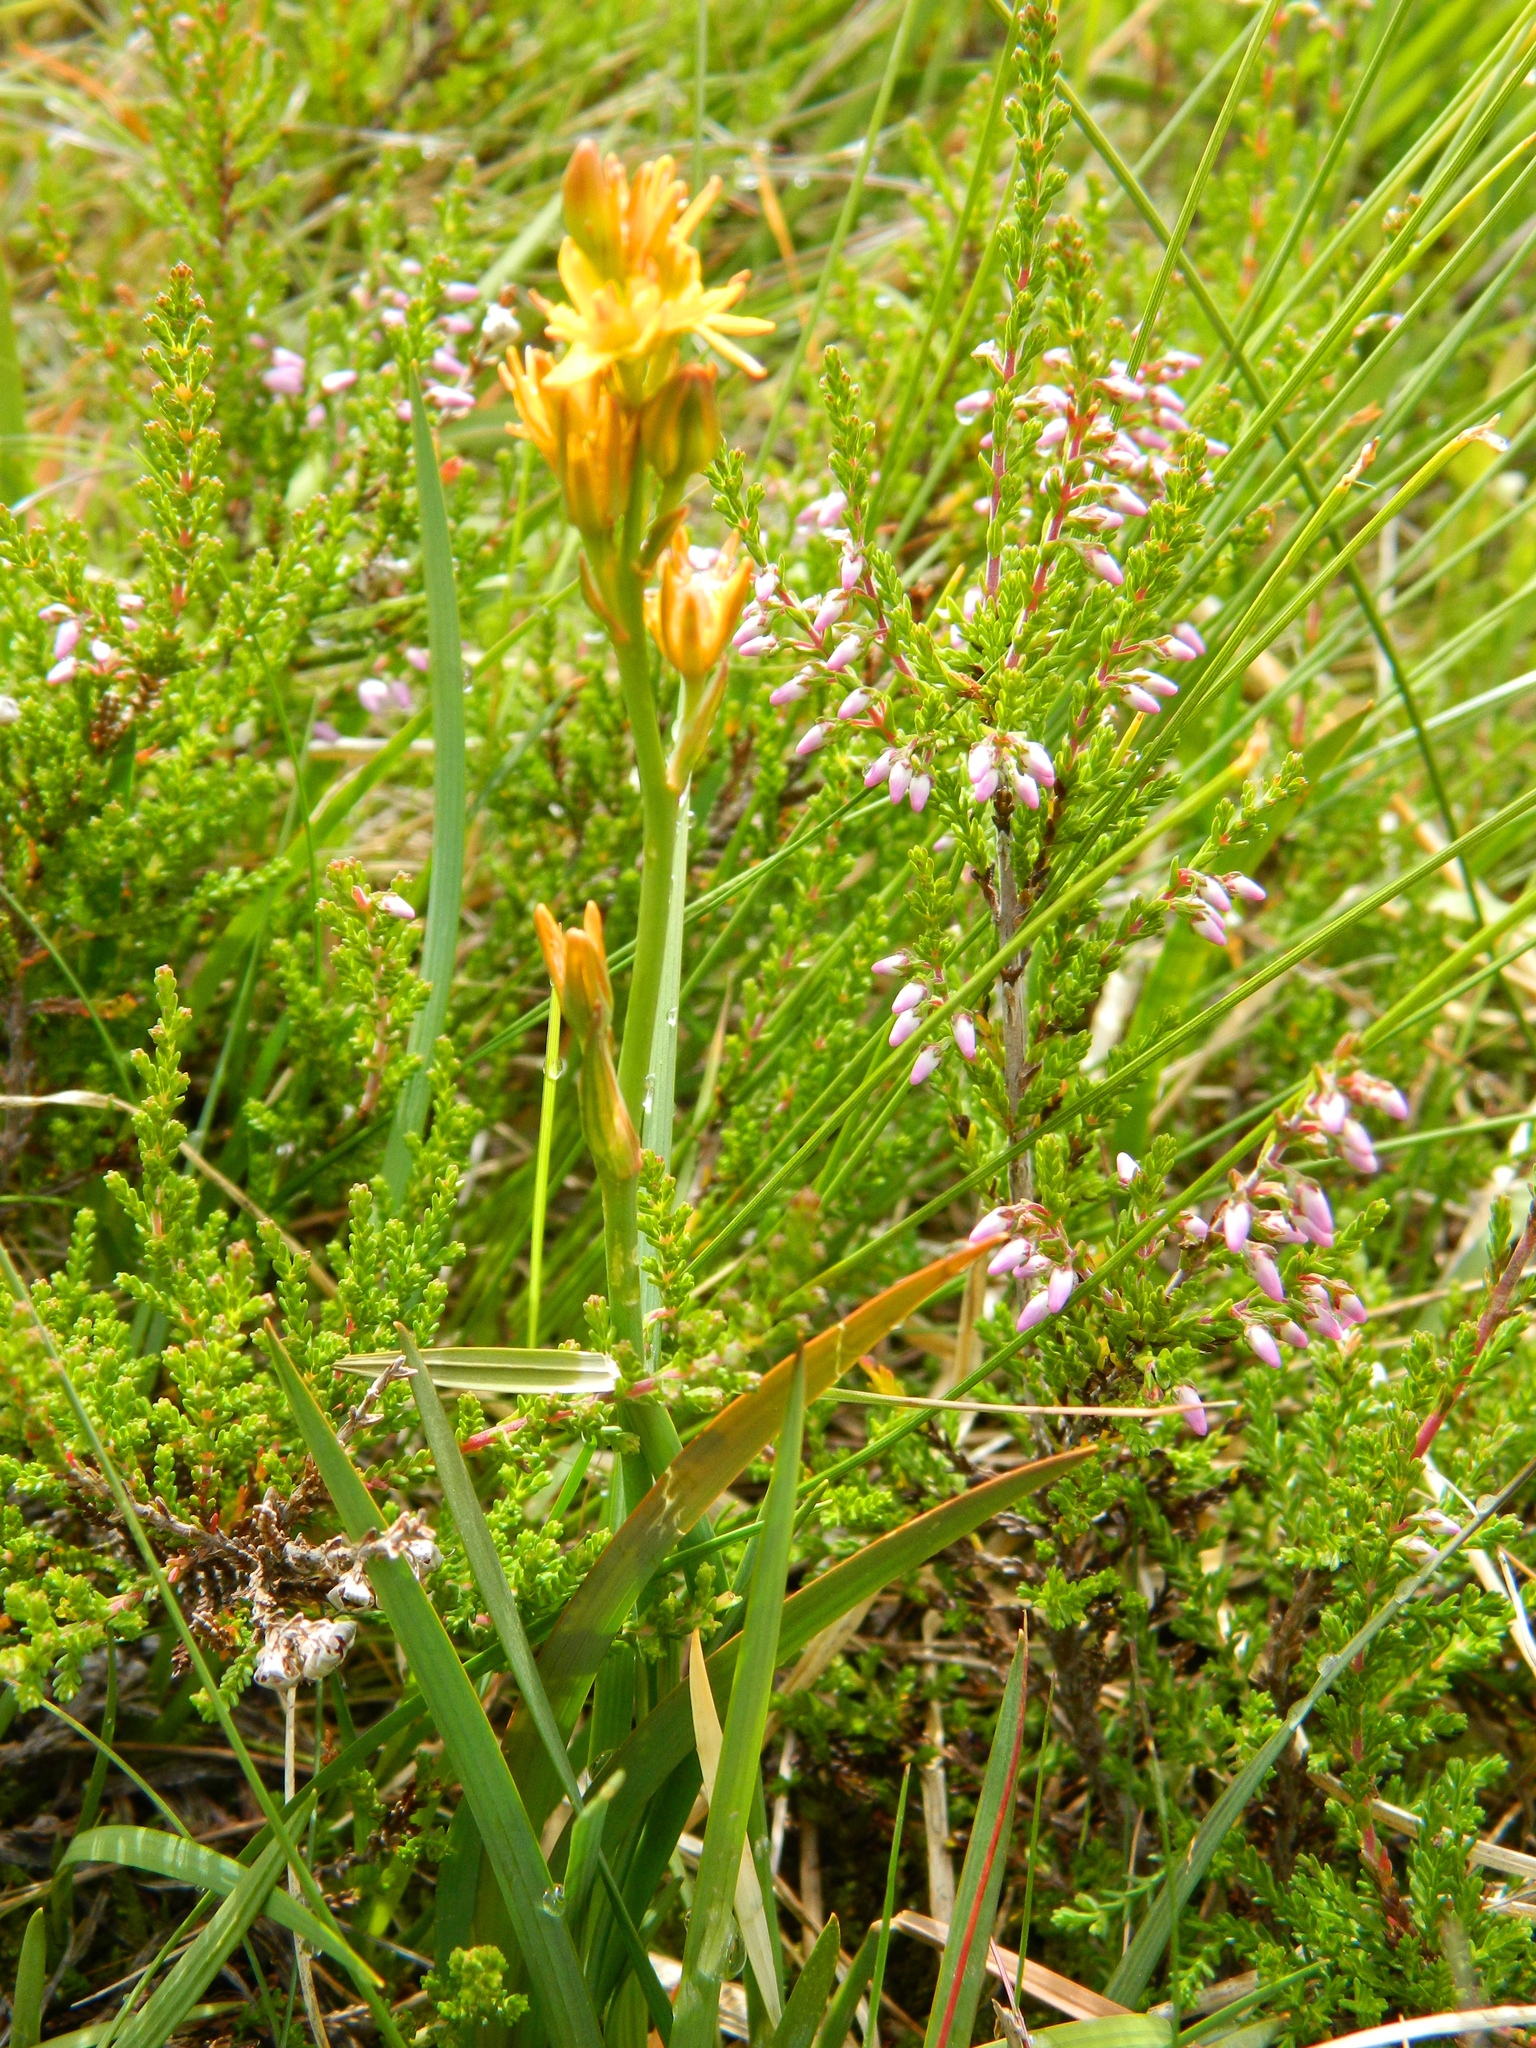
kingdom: Plantae
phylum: Tracheophyta
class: Liliopsida
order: Dioscoreales
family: Nartheciaceae
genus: Narthecium
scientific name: Narthecium ossifragum
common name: Bog asphodel
